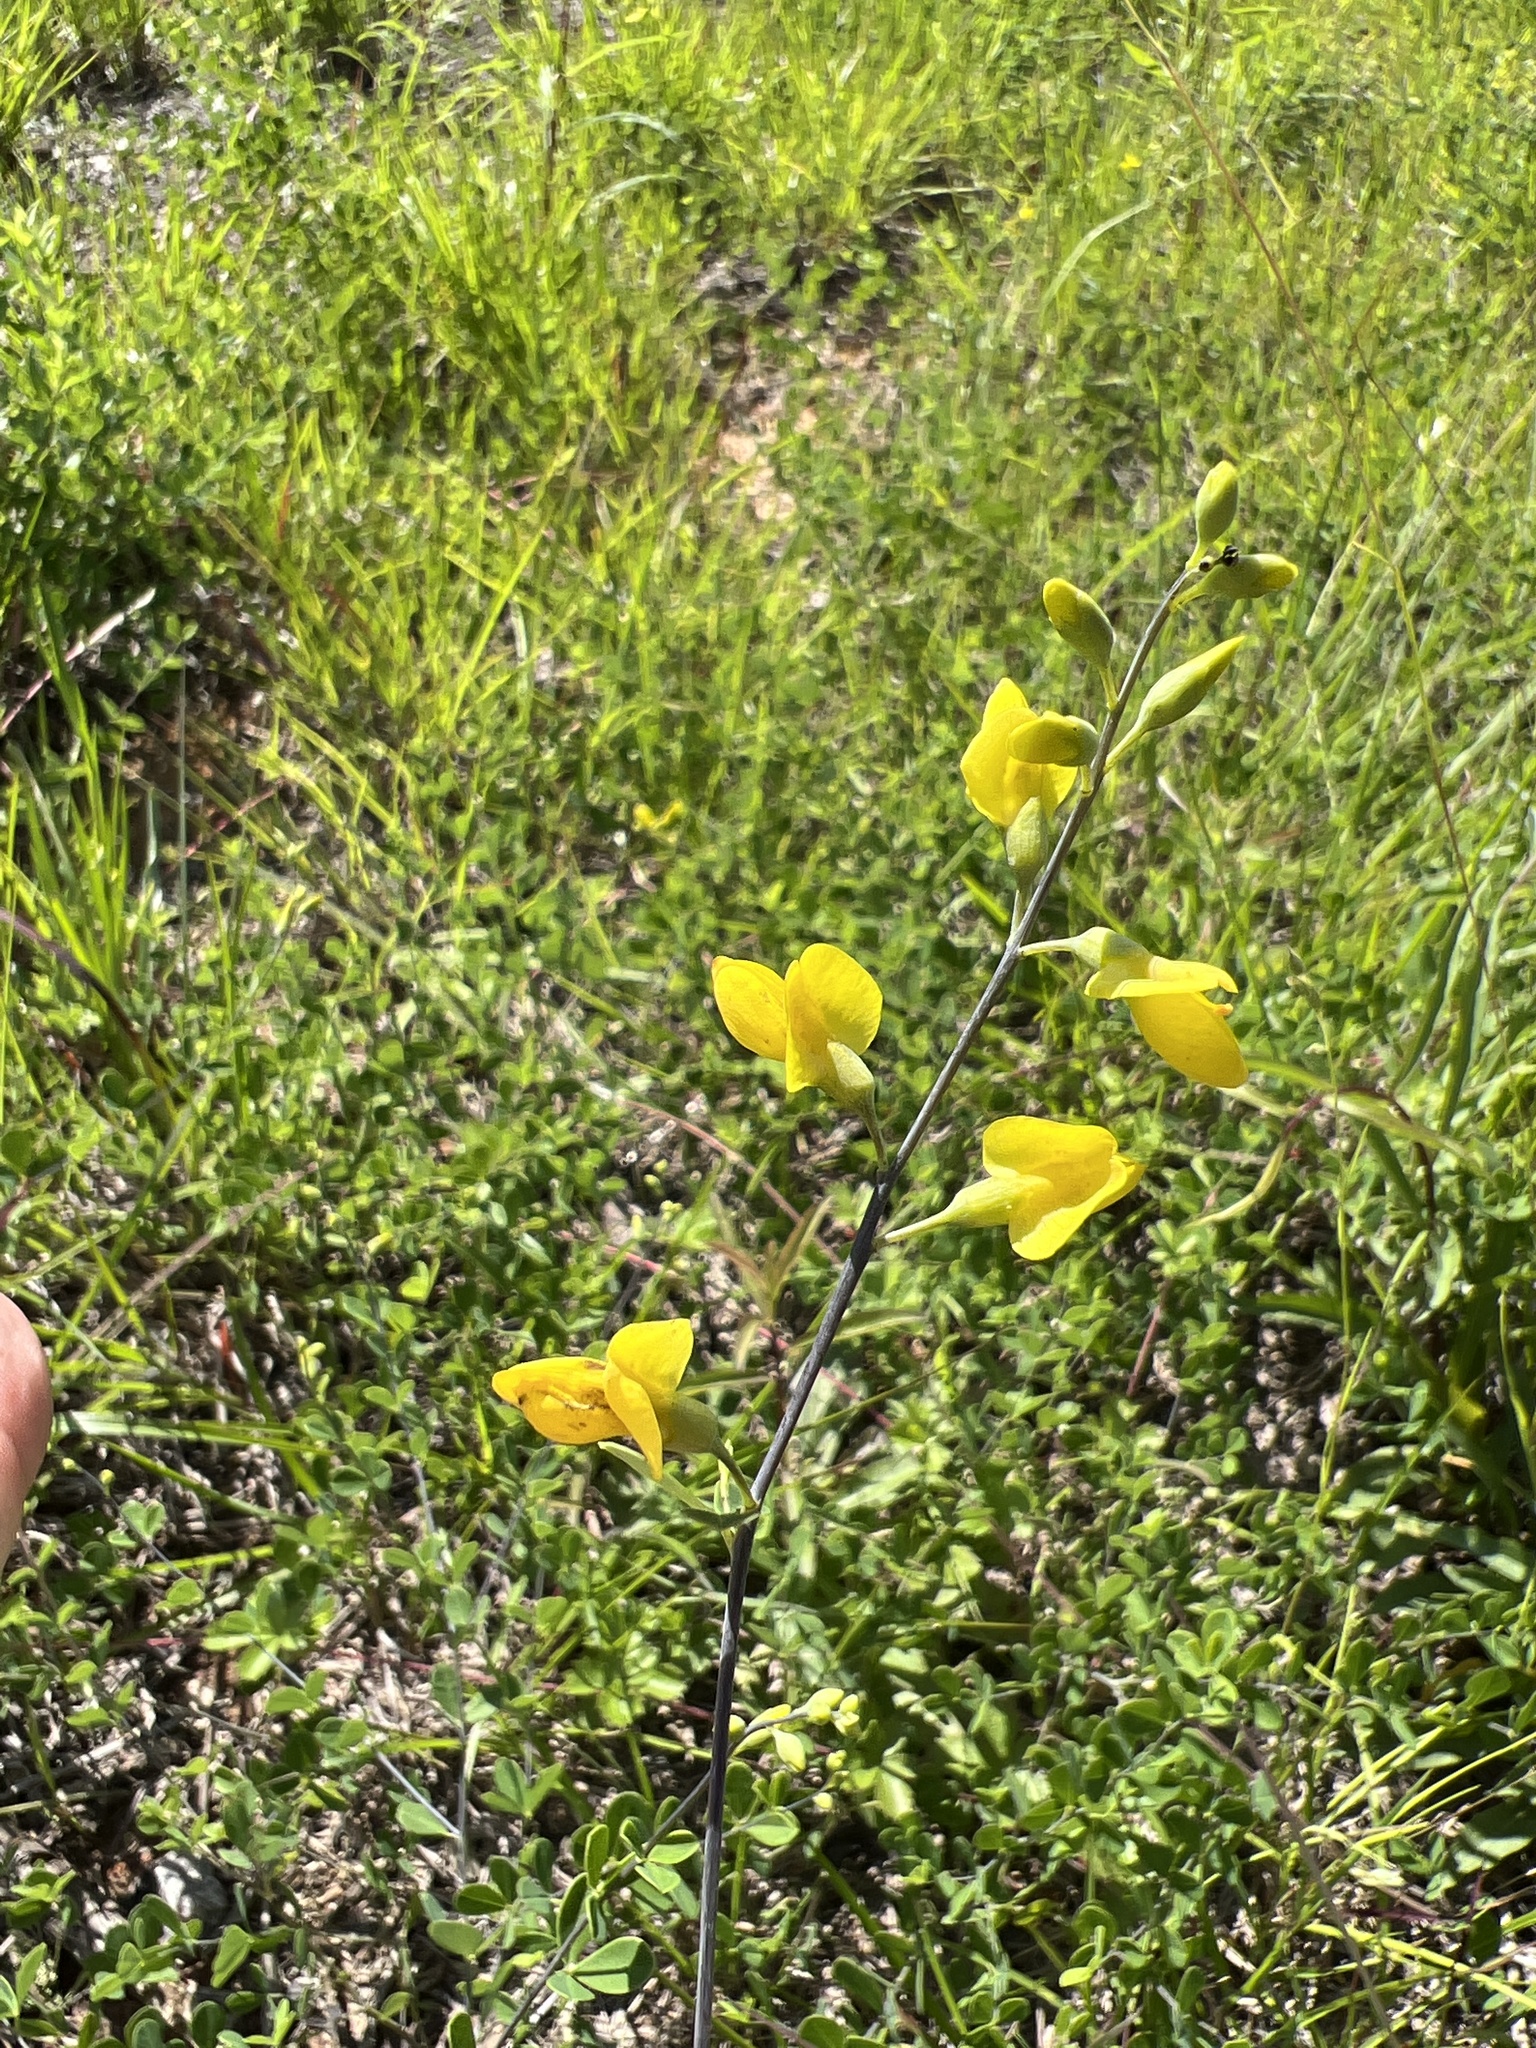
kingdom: Plantae
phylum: Tracheophyta
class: Magnoliopsida
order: Fabales
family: Fabaceae
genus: Baptisia
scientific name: Baptisia tinctoria
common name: Wild indigo
